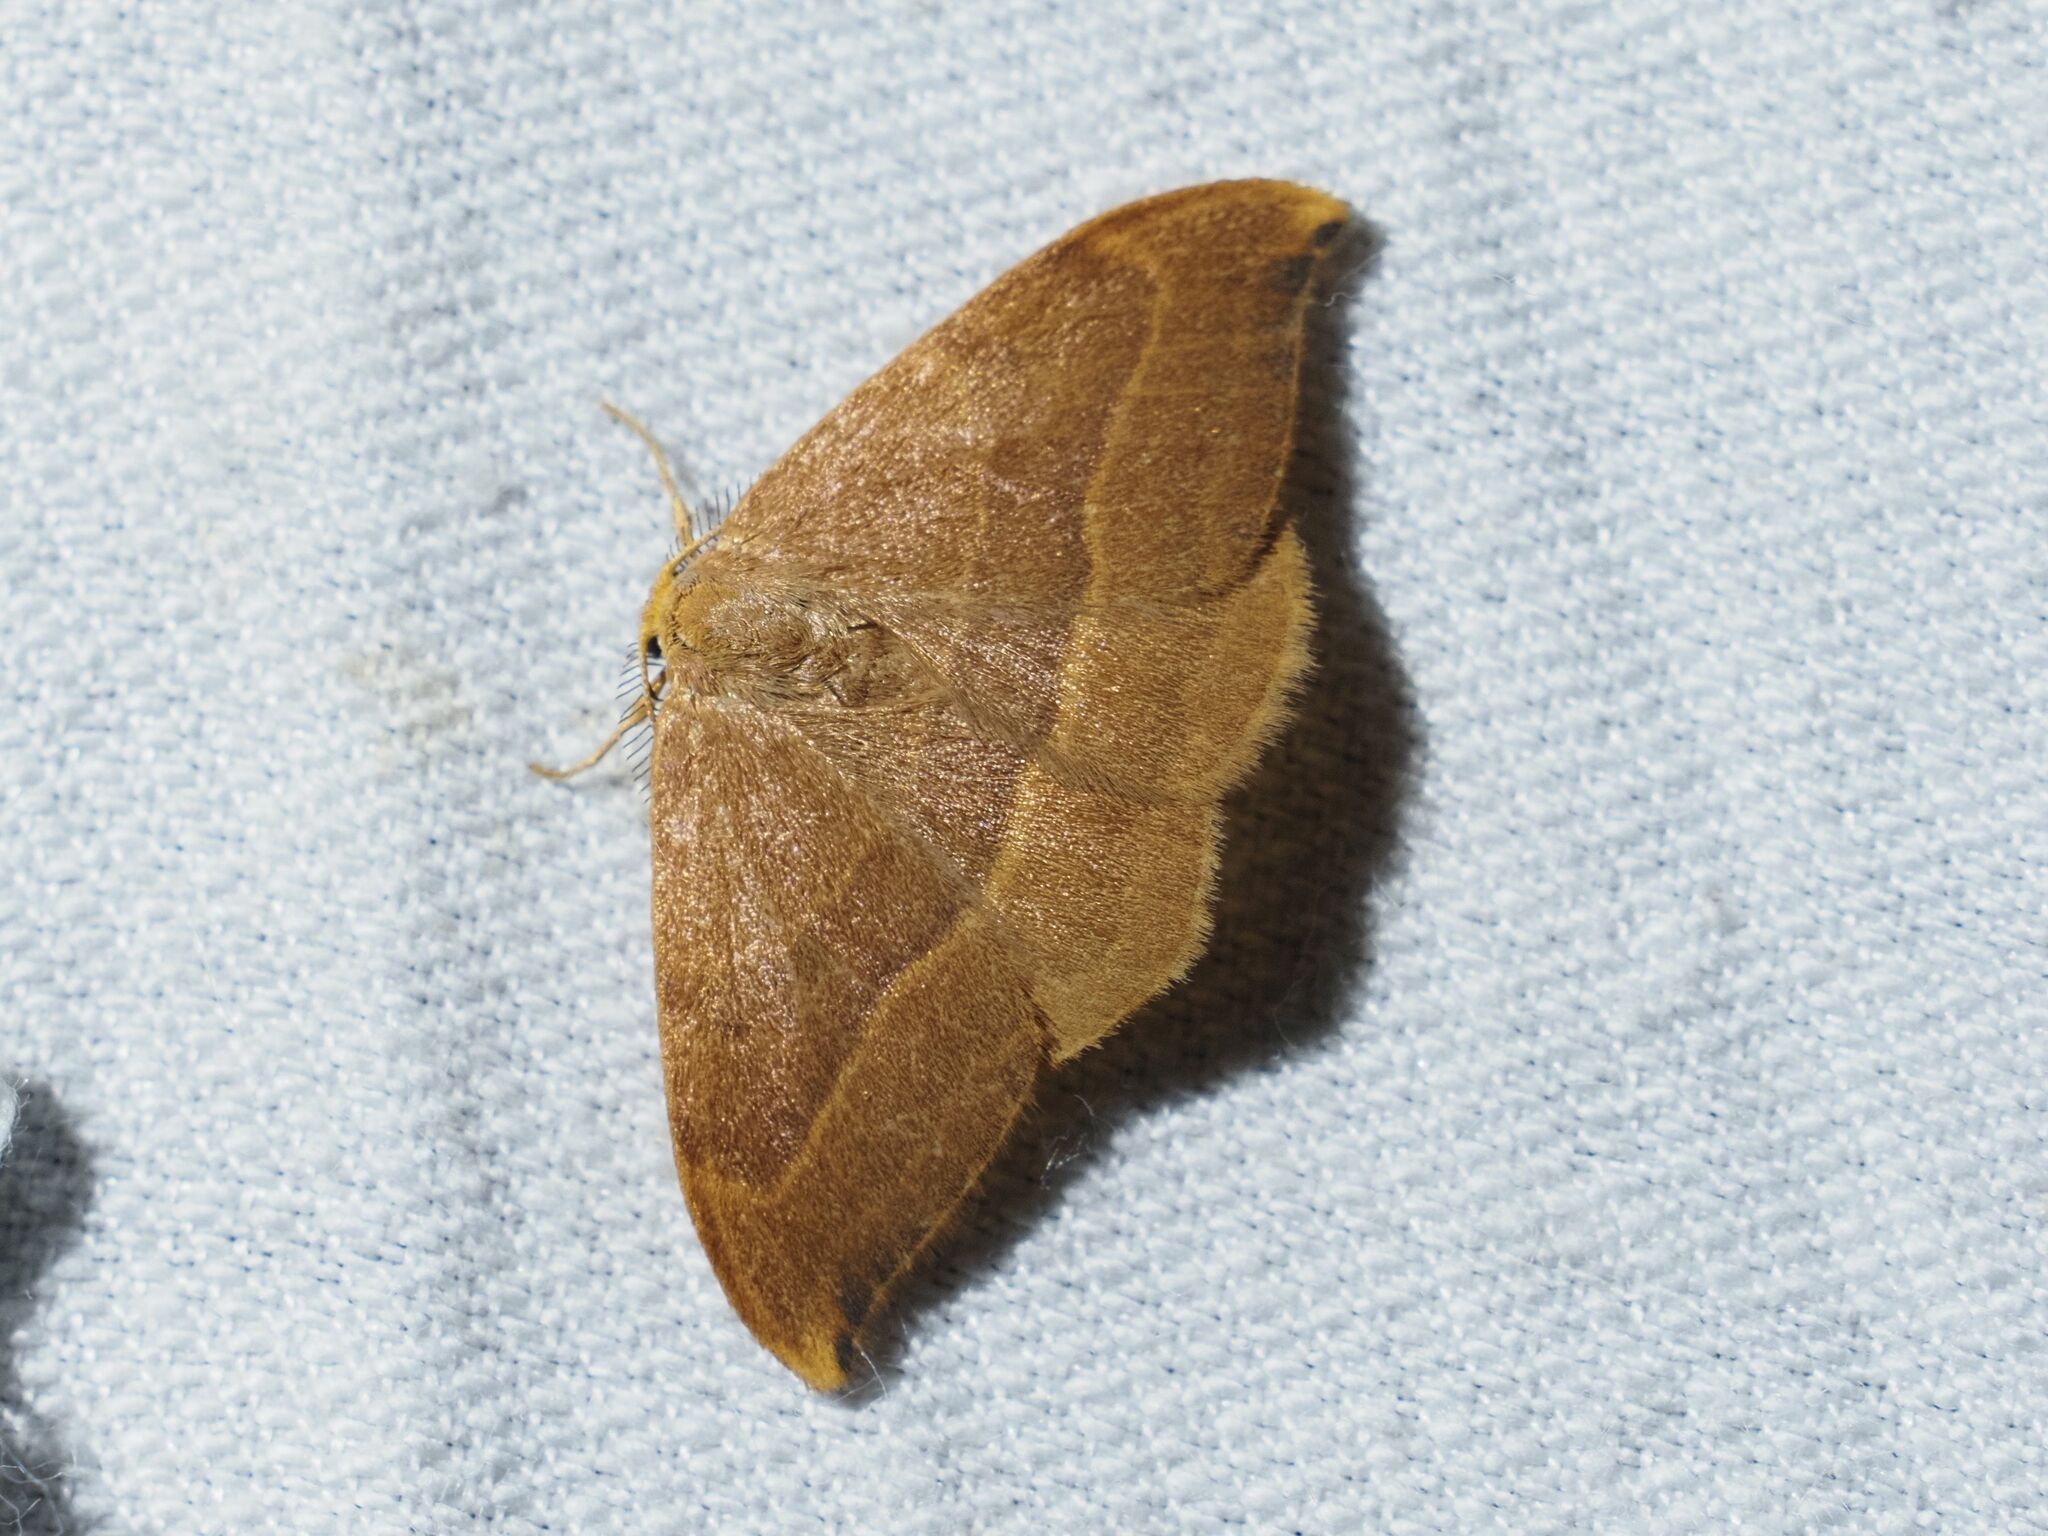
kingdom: Animalia
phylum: Arthropoda
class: Insecta
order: Lepidoptera
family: Drepanidae
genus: Watsonalla
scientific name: Watsonalla cultraria
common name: Barred hook-tip
